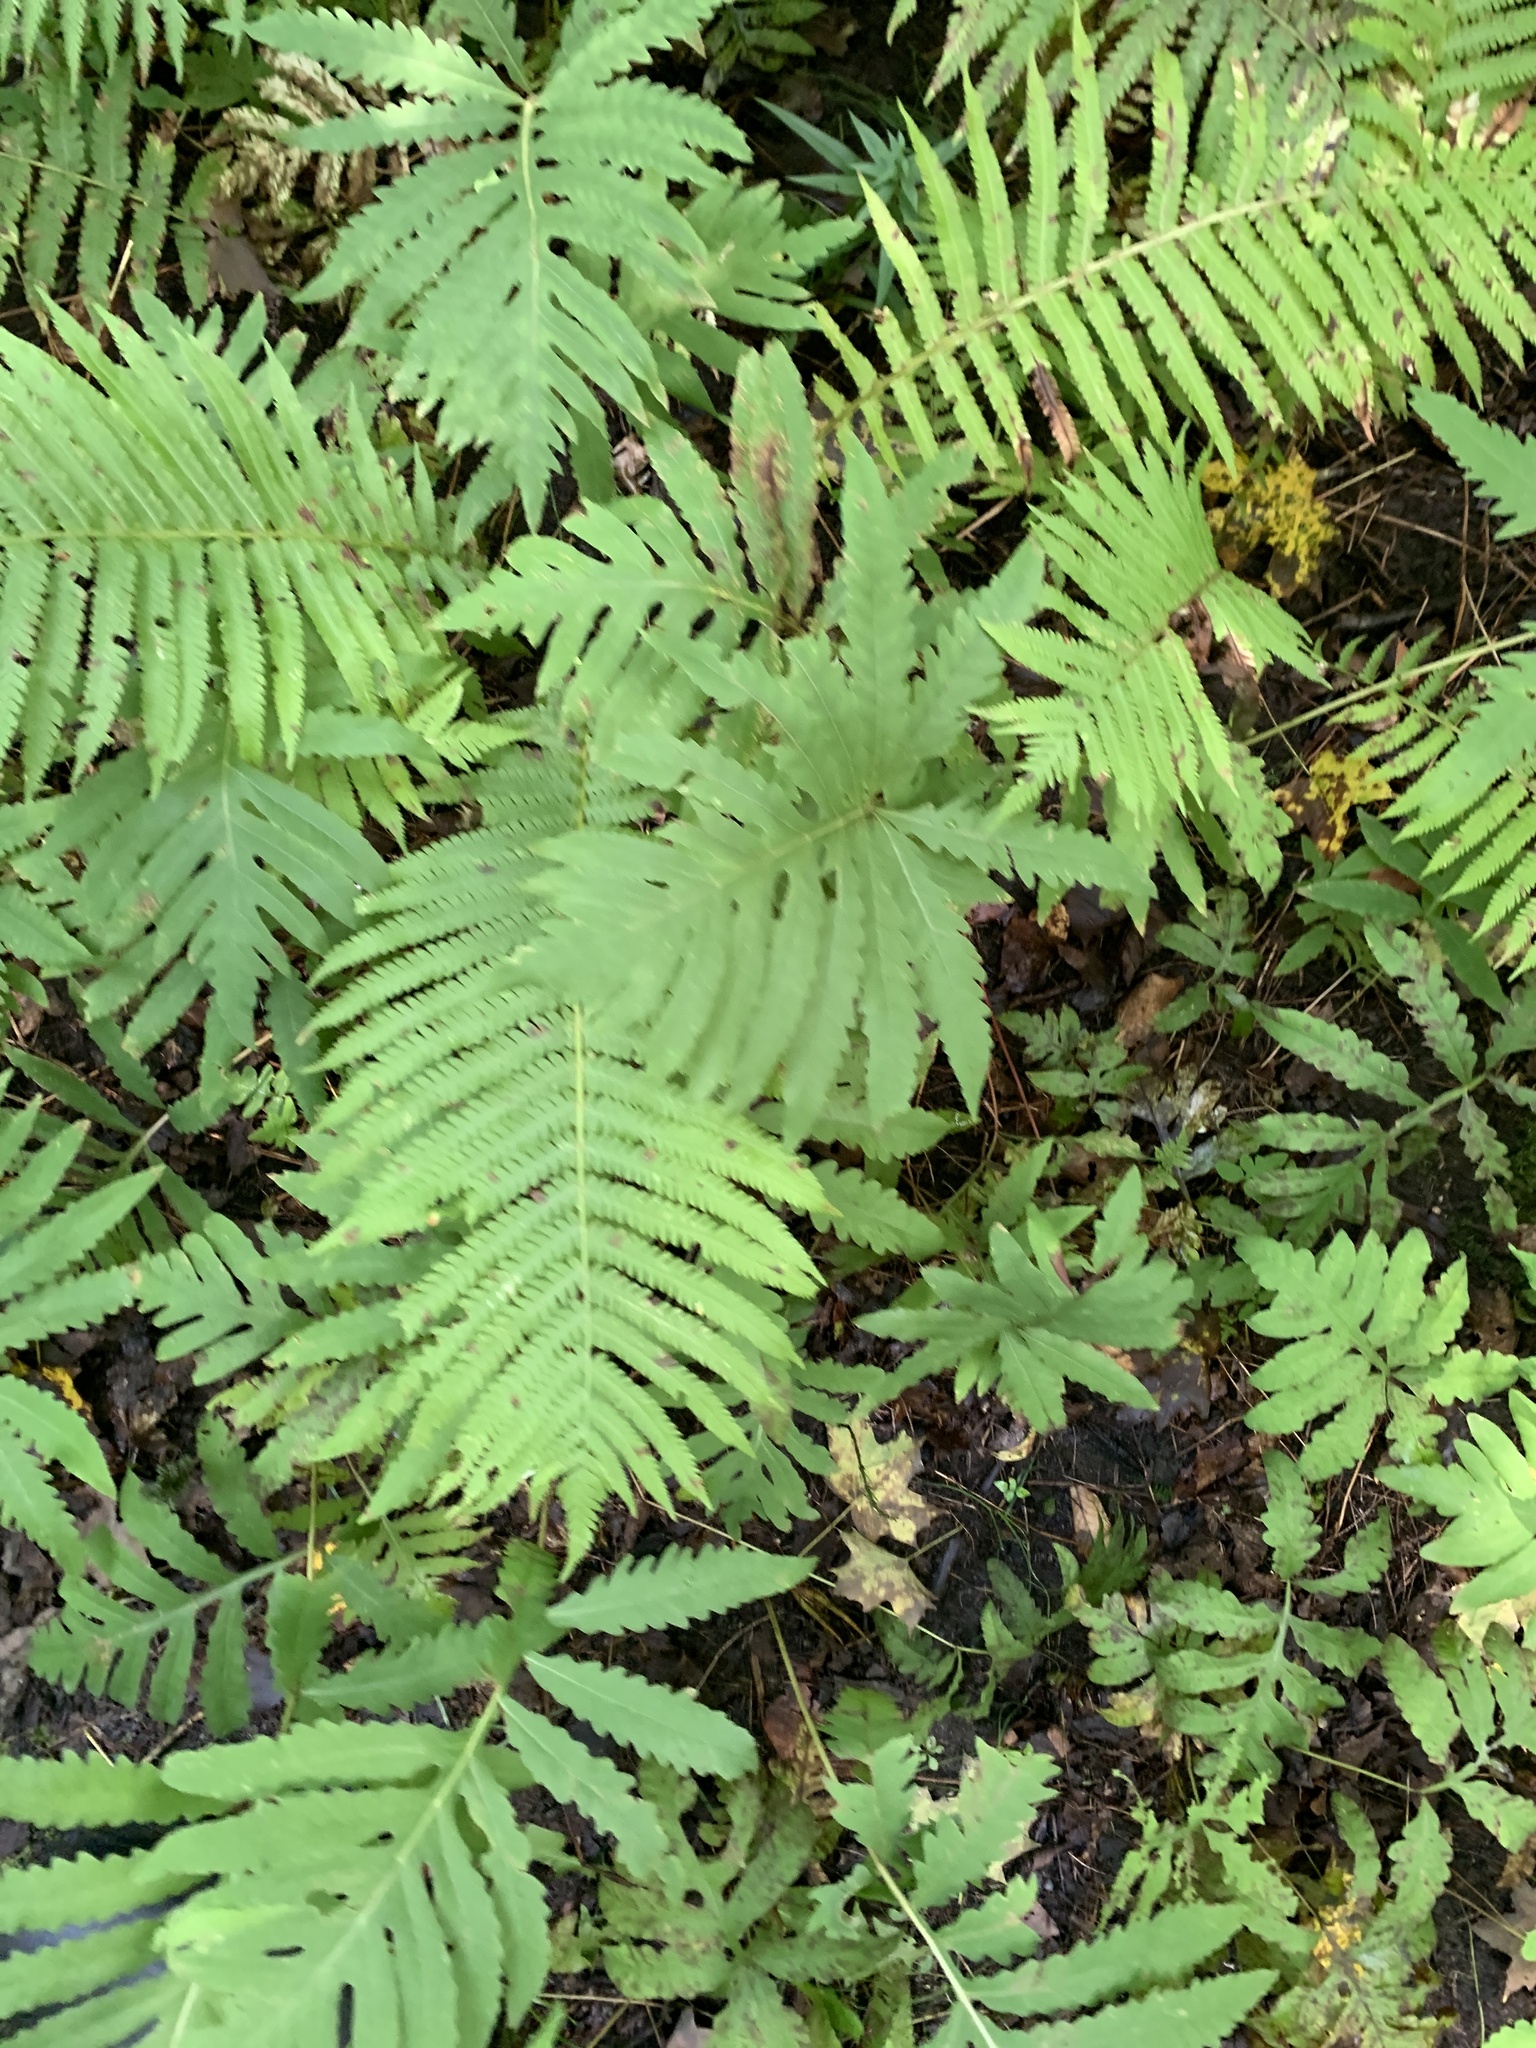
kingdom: Plantae
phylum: Tracheophyta
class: Polypodiopsida
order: Polypodiales
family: Onocleaceae
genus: Onoclea
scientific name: Onoclea sensibilis
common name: Sensitive fern
